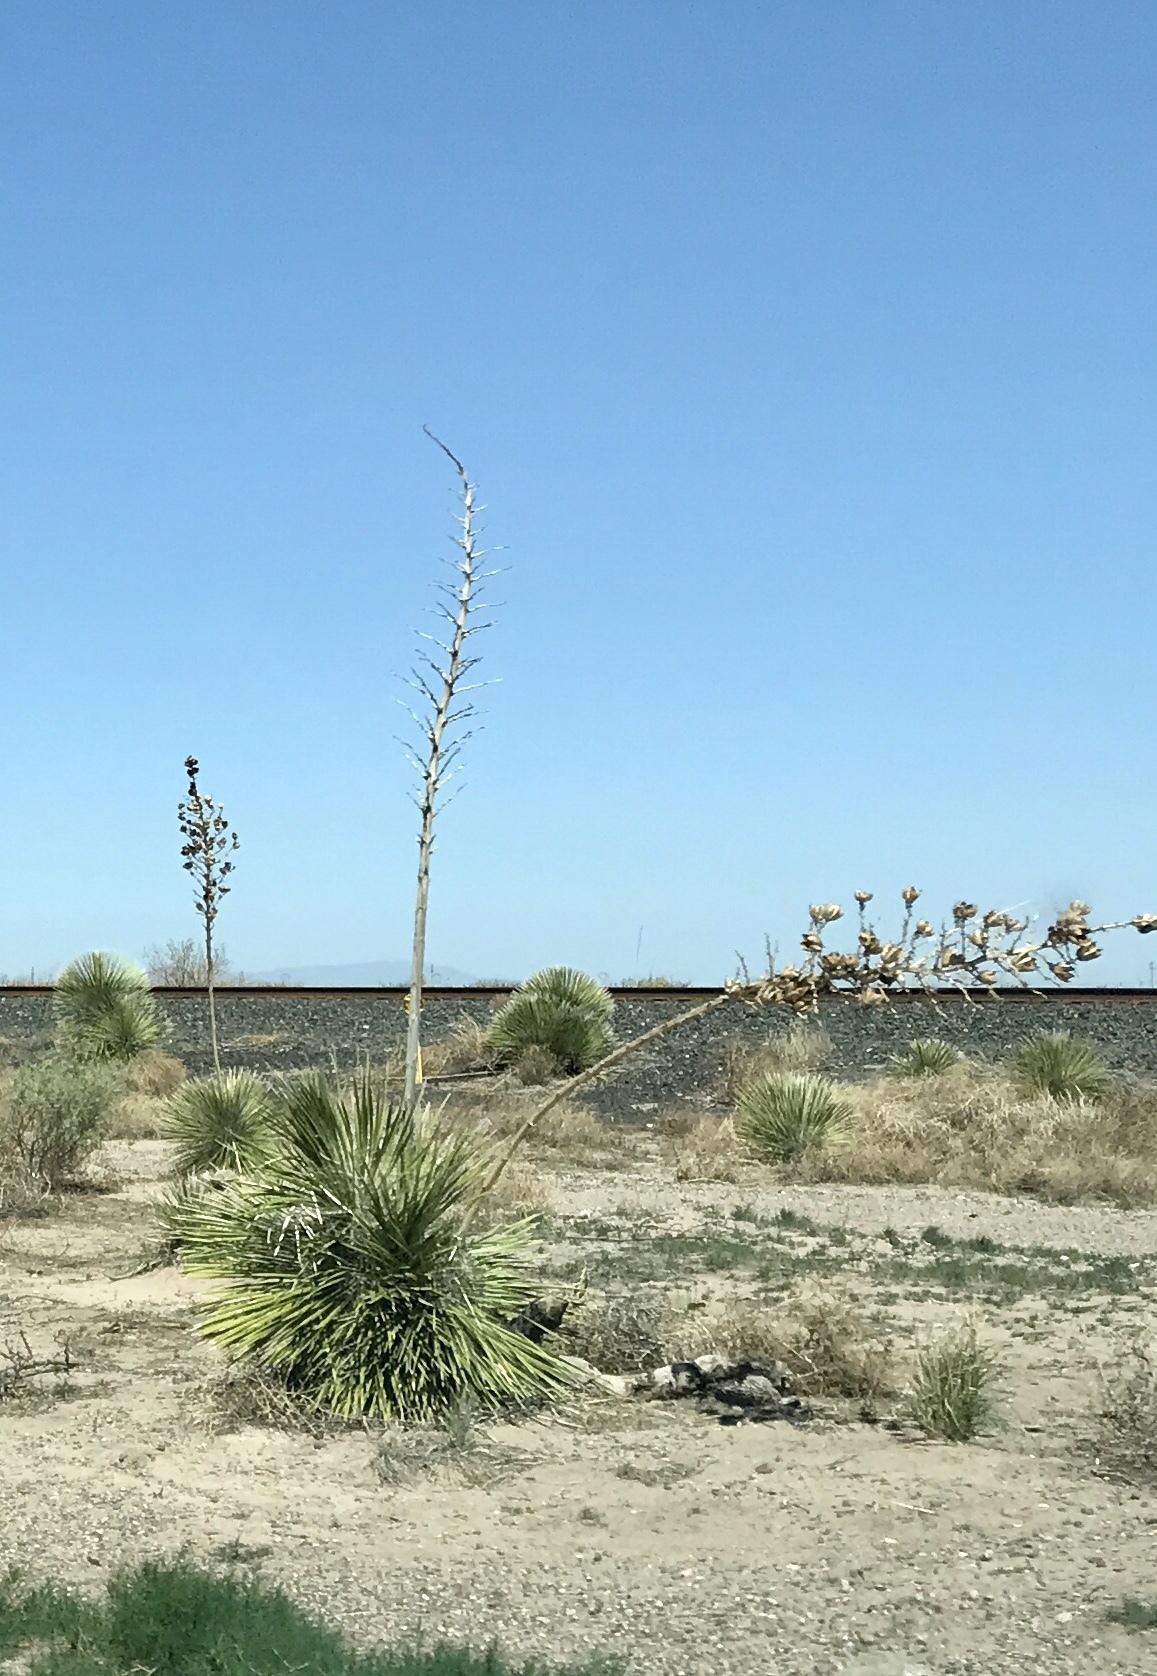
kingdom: Plantae
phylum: Tracheophyta
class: Liliopsida
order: Asparagales
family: Asparagaceae
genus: Yucca
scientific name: Yucca elata
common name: Palmella
